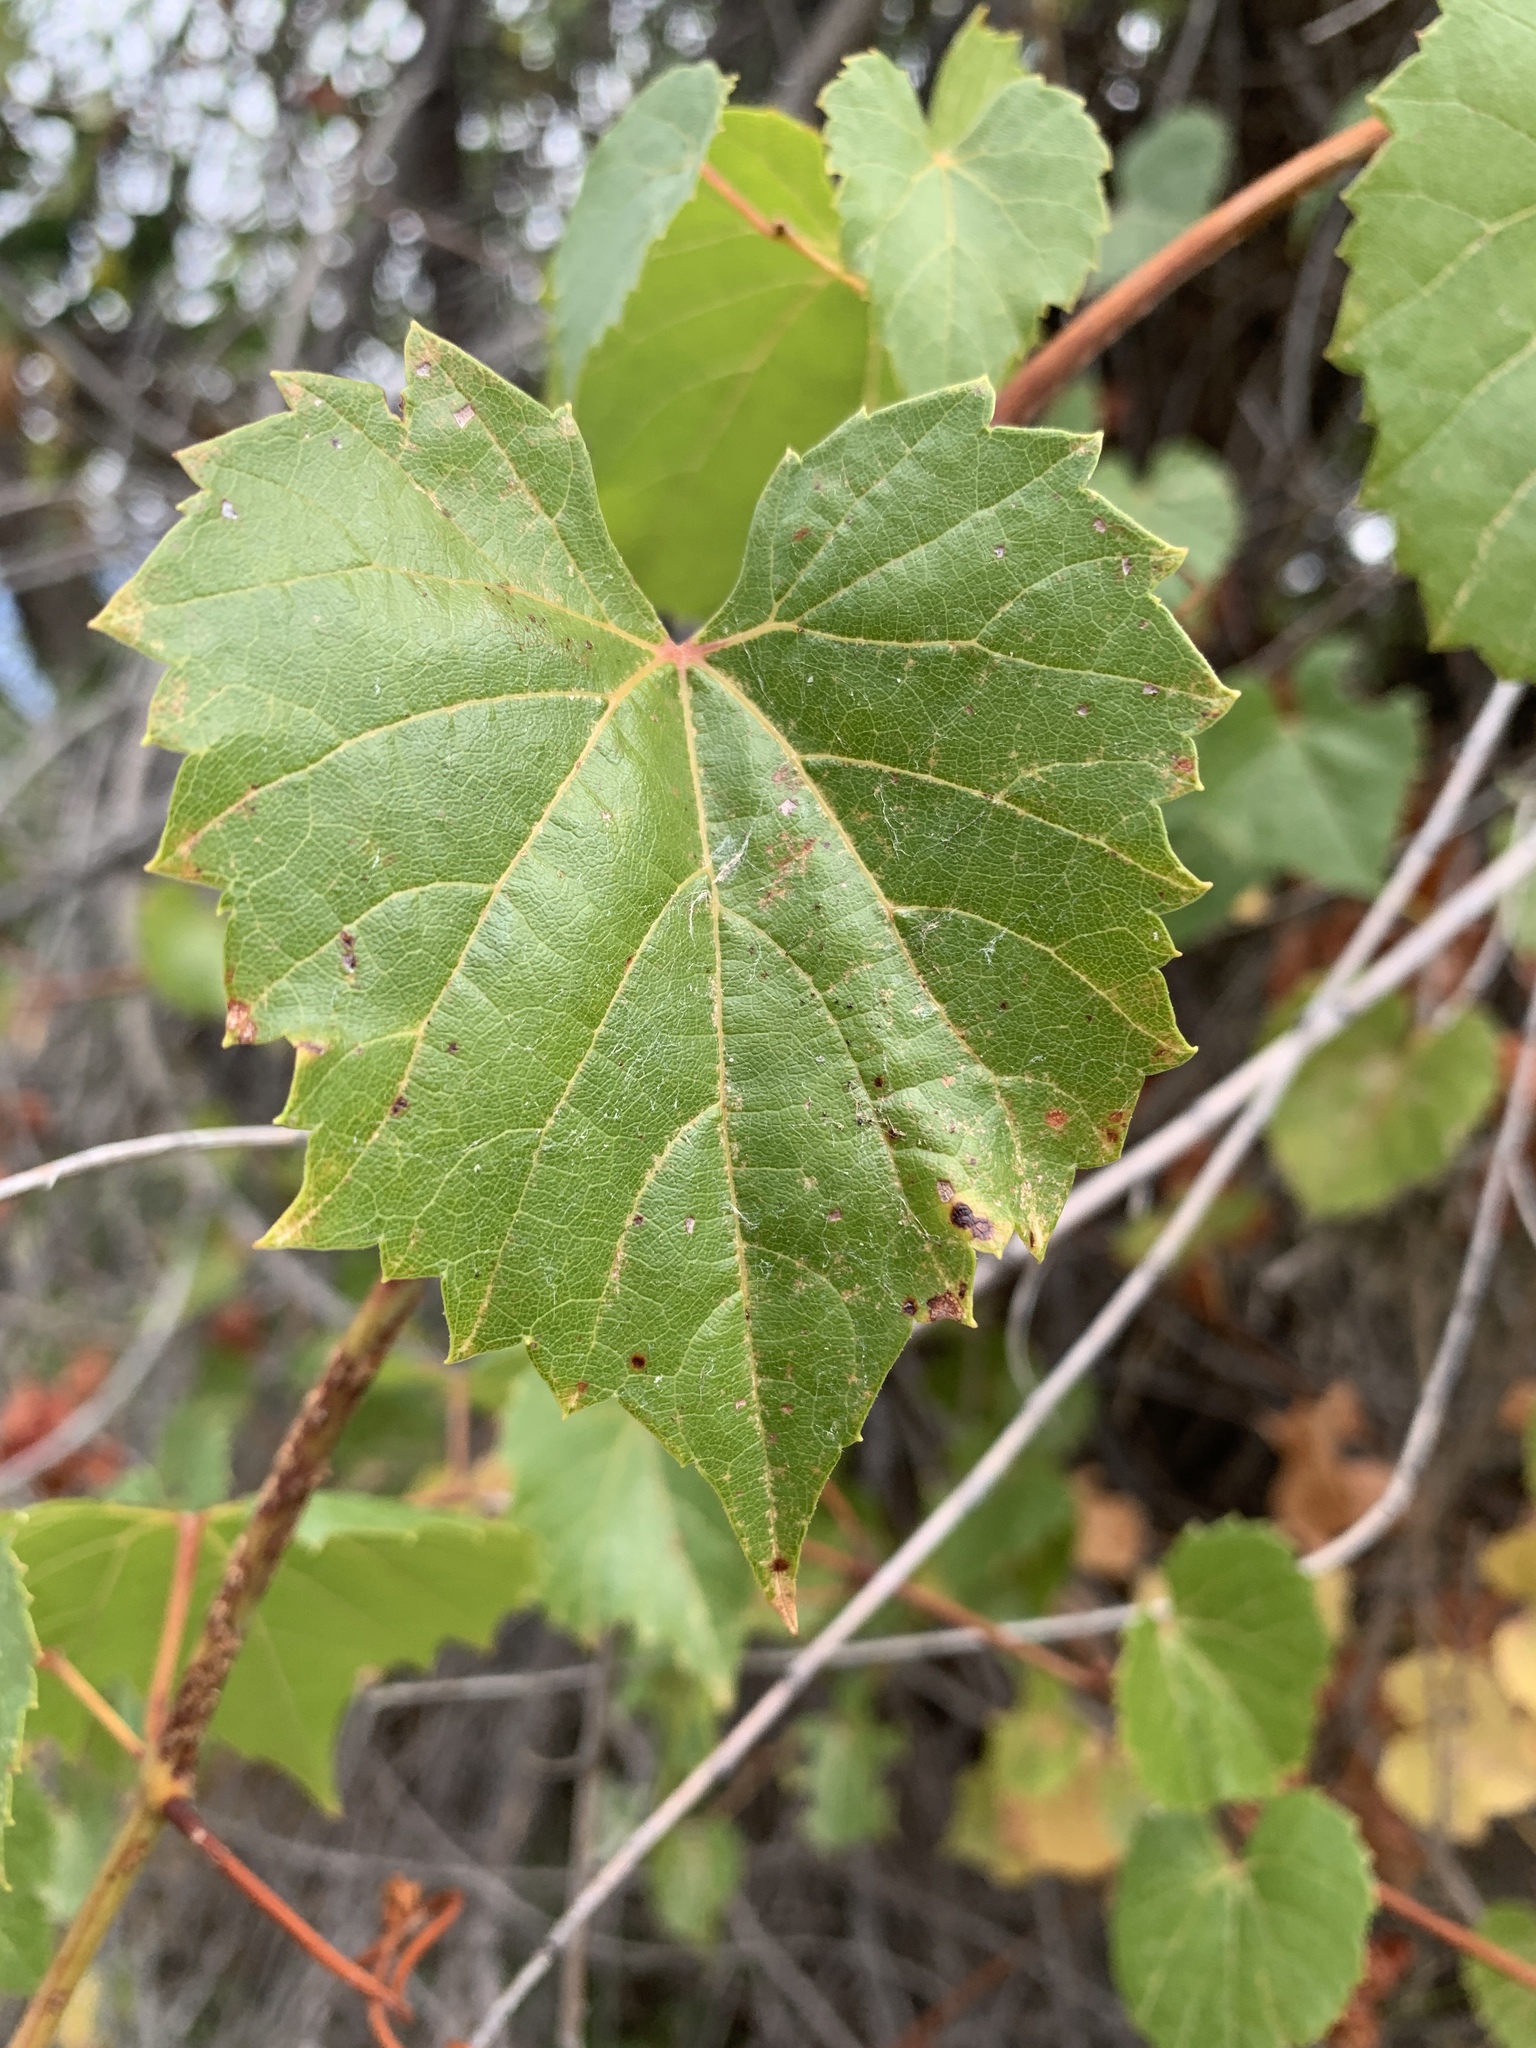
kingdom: Plantae
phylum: Tracheophyta
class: Magnoliopsida
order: Vitales
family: Vitaceae
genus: Vitis
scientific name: Vitis arizonica
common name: Canyon grape
